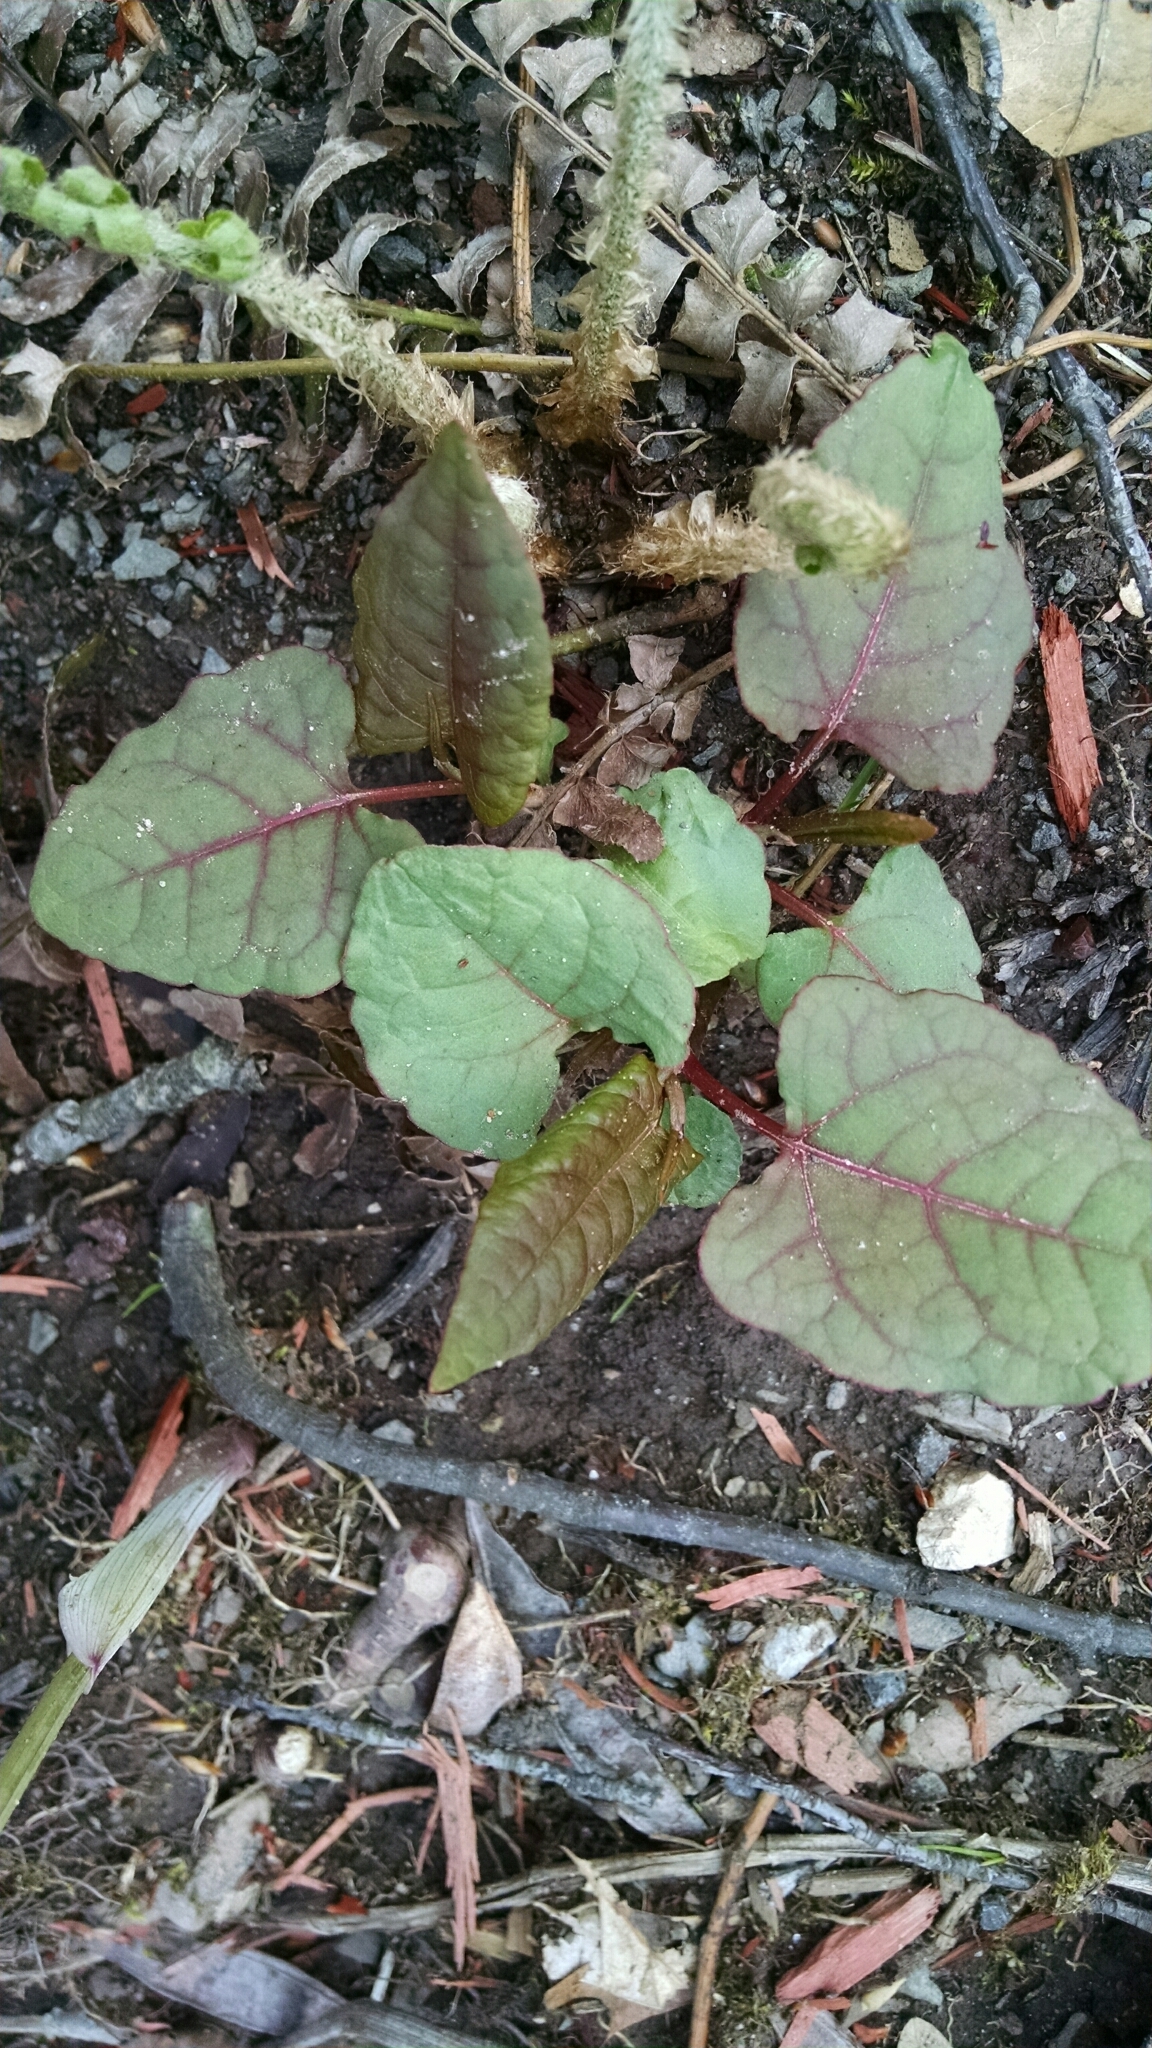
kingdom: Plantae
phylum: Tracheophyta
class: Magnoliopsida
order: Caryophyllales
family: Polygonaceae
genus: Reynoutria
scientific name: Reynoutria japonica
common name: Japanese knotweed
